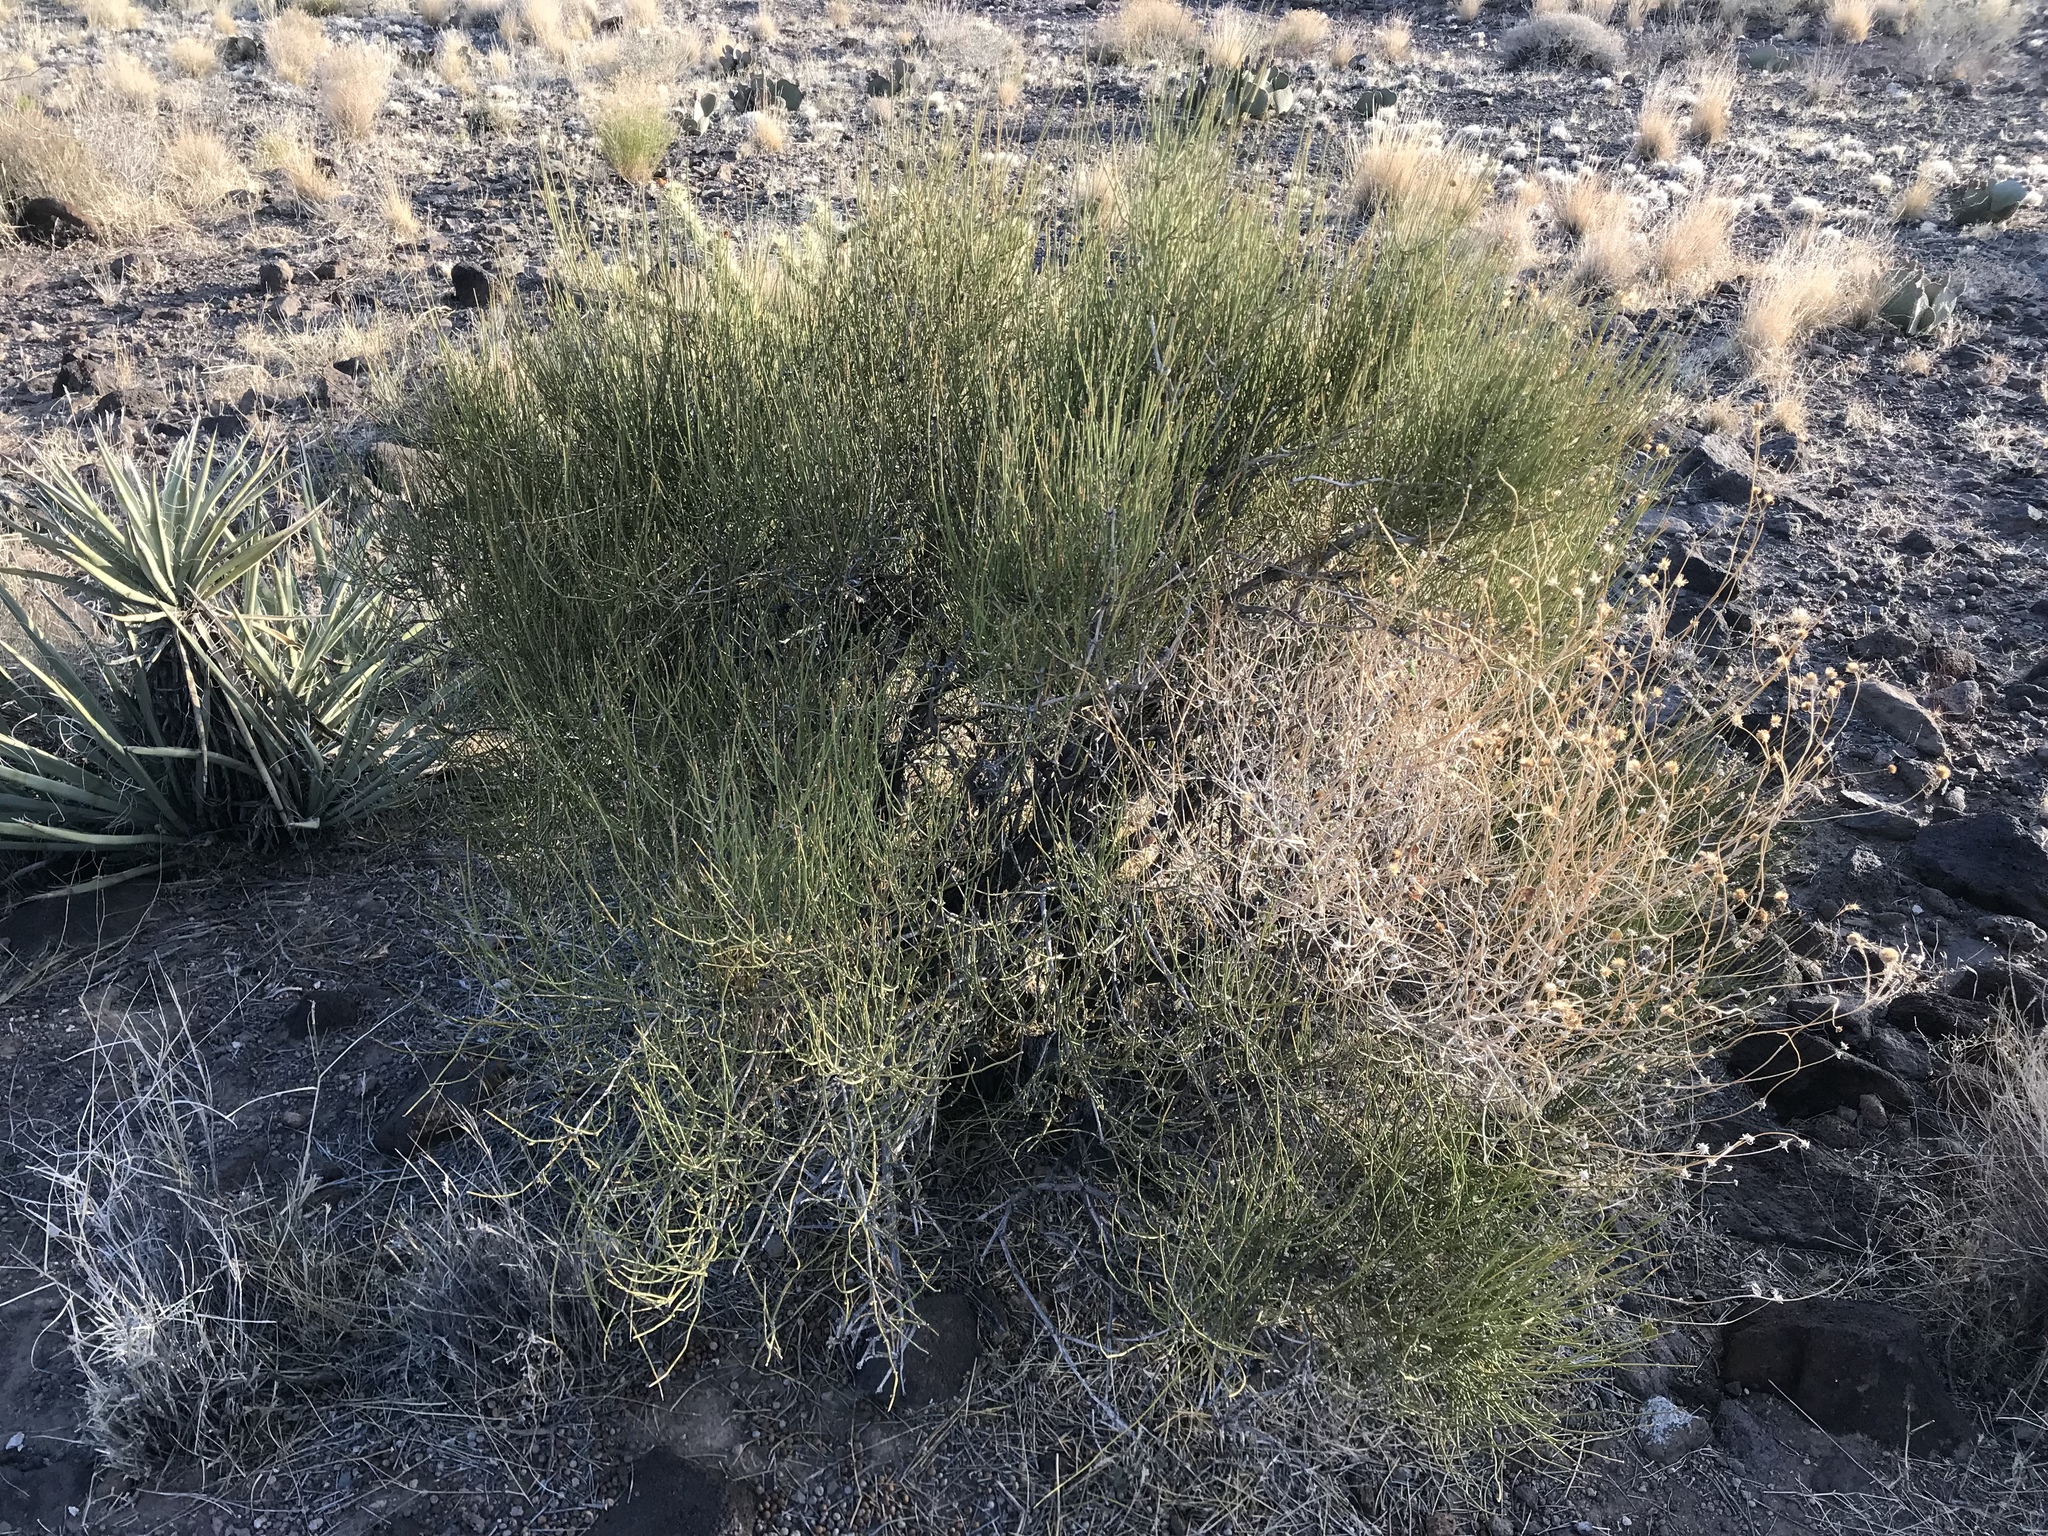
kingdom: Plantae
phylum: Tracheophyta
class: Magnoliopsida
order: Celastrales
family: Celastraceae
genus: Canotia
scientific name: Canotia holacantha
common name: Crucifixion thorns
